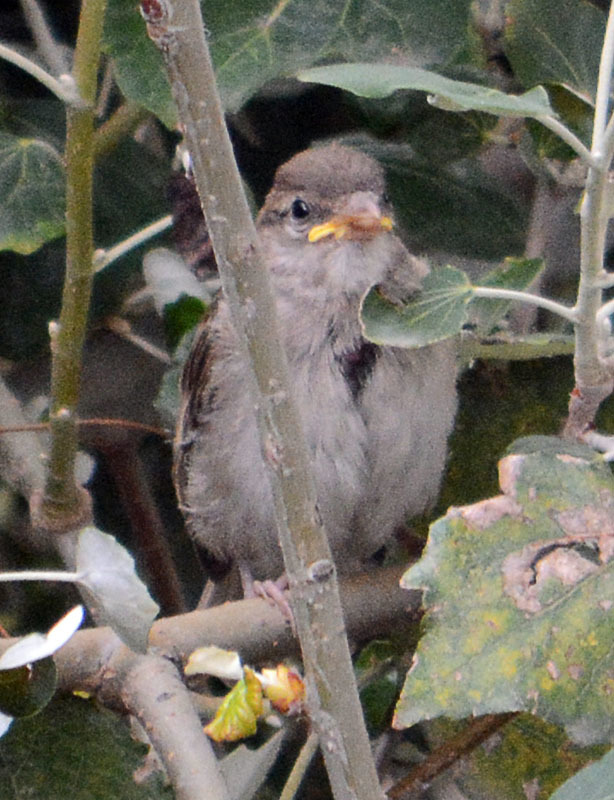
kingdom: Animalia
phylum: Chordata
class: Aves
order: Passeriformes
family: Passeridae
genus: Passer
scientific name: Passer domesticus
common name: House sparrow
